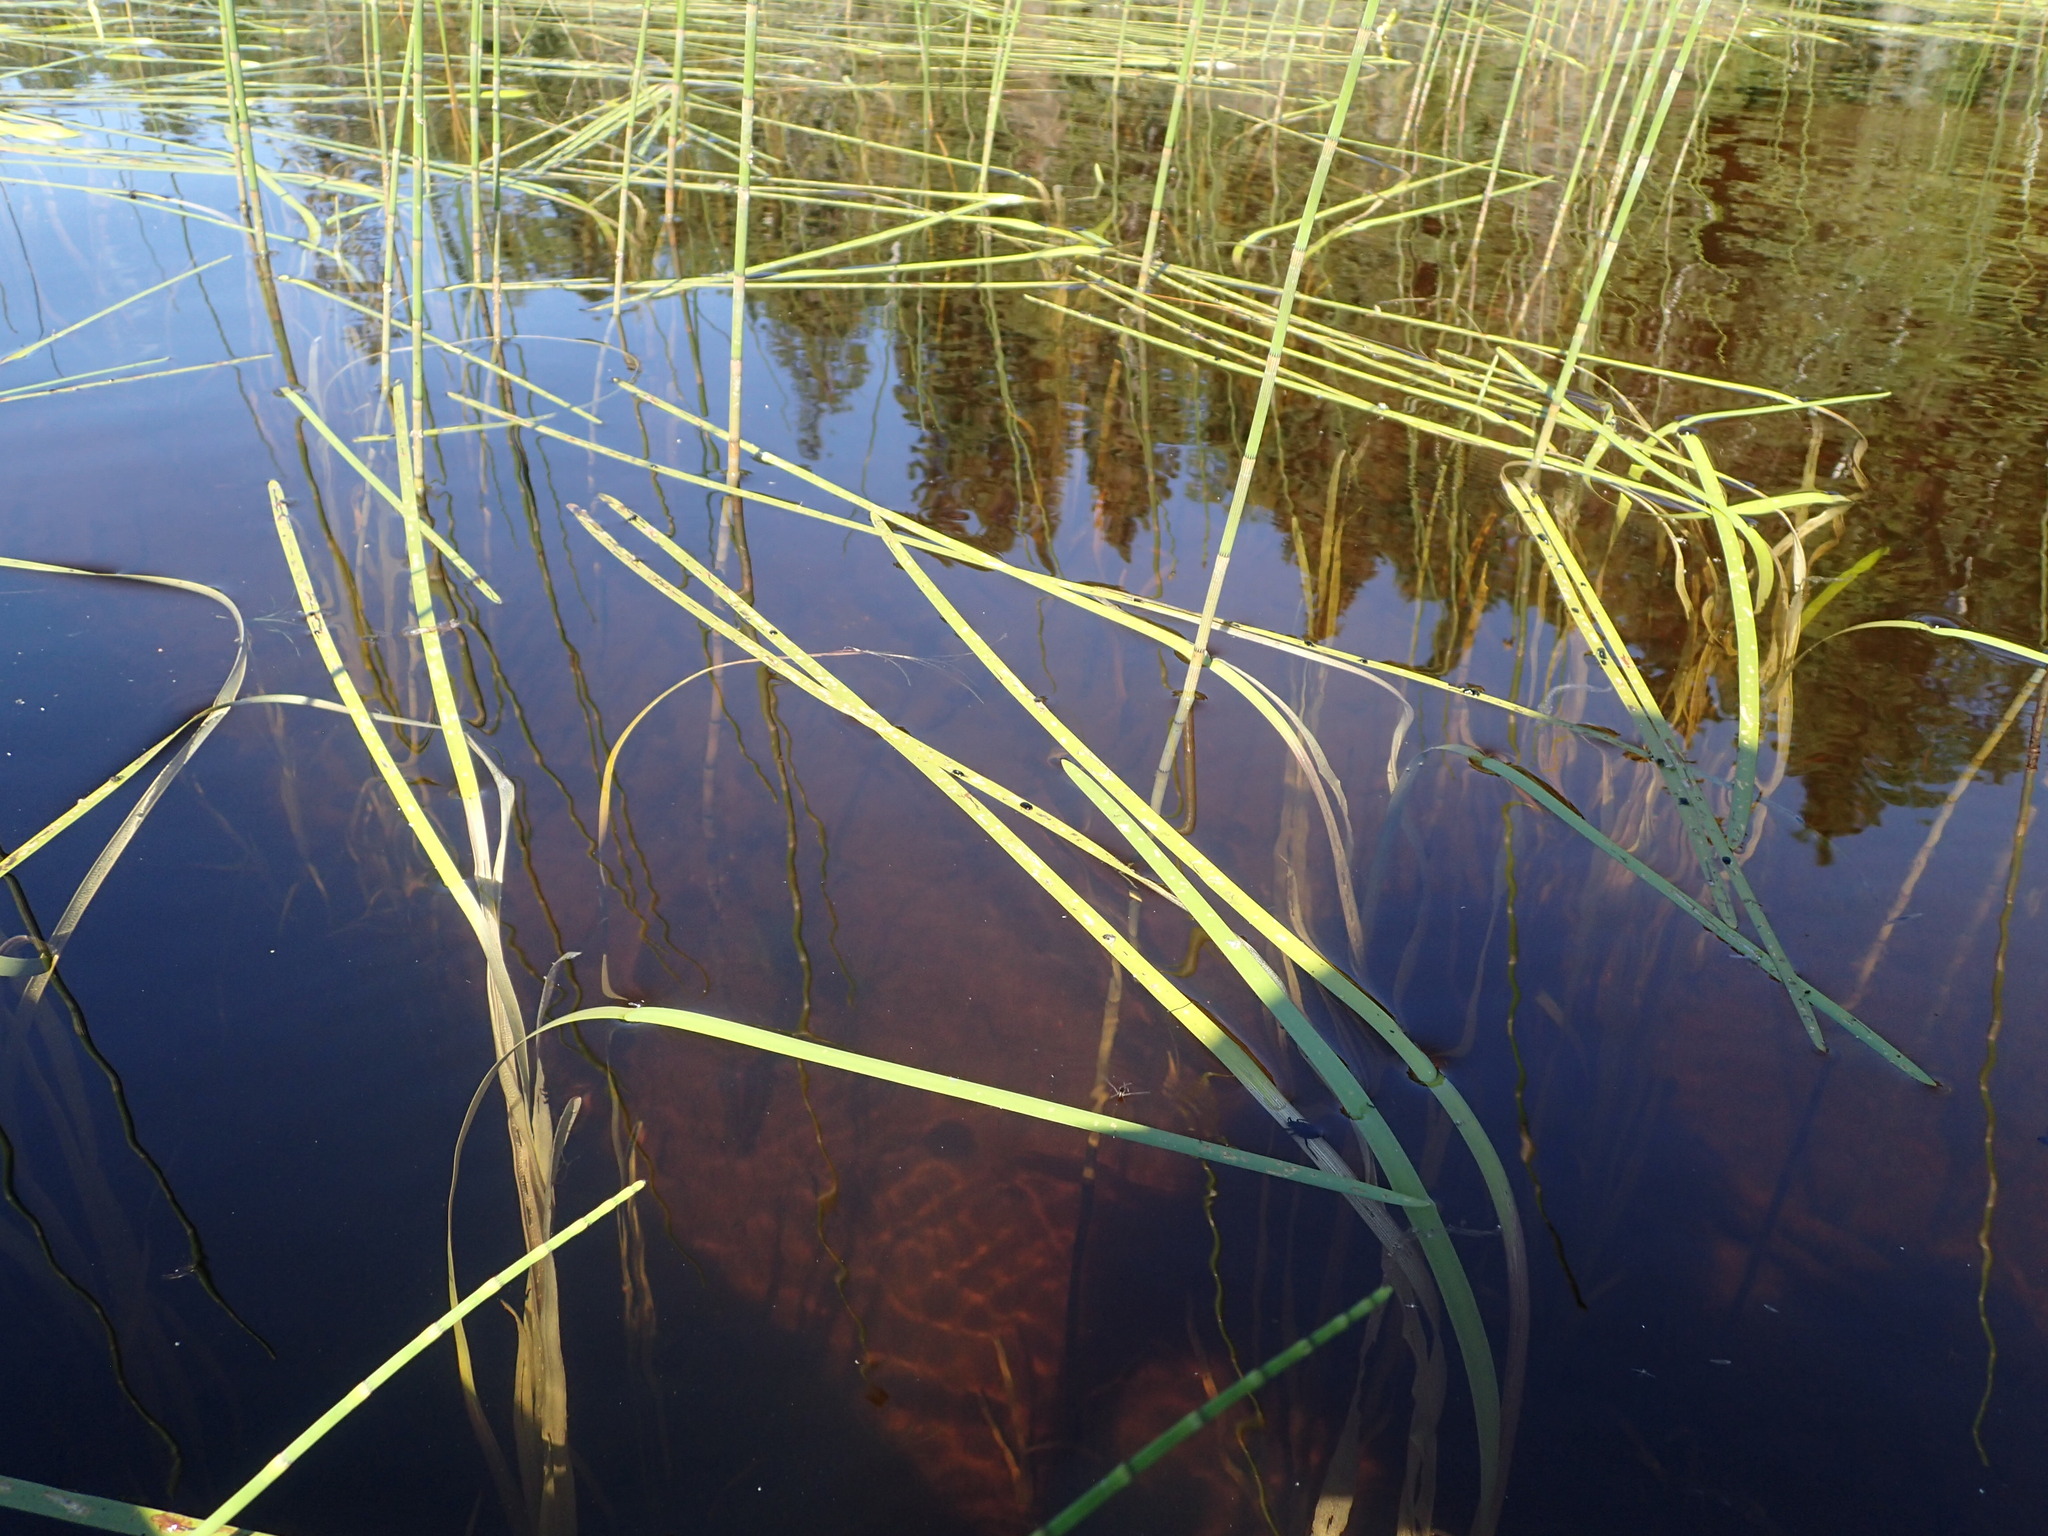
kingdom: Plantae
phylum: Tracheophyta
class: Liliopsida
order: Poales
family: Typhaceae
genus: Sparganium
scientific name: Sparganium fluctuans
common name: Floating burreed
